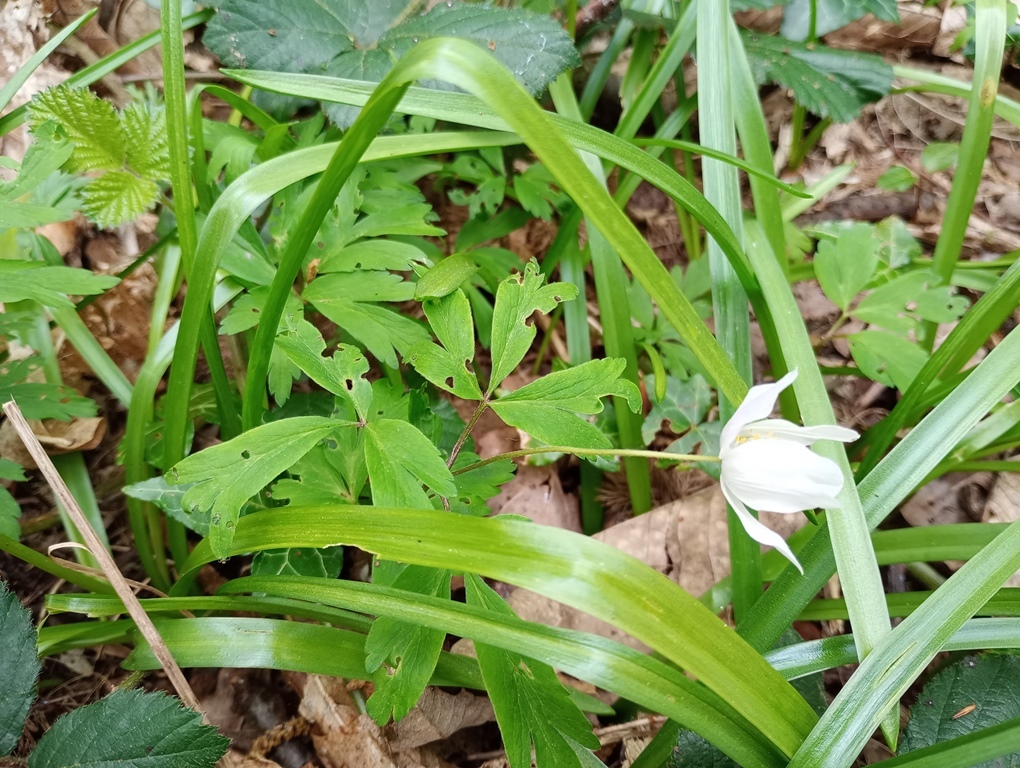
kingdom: Plantae
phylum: Tracheophyta
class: Magnoliopsida
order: Ranunculales
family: Ranunculaceae
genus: Anemone
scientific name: Anemone nemorosa
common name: Wood anemone
